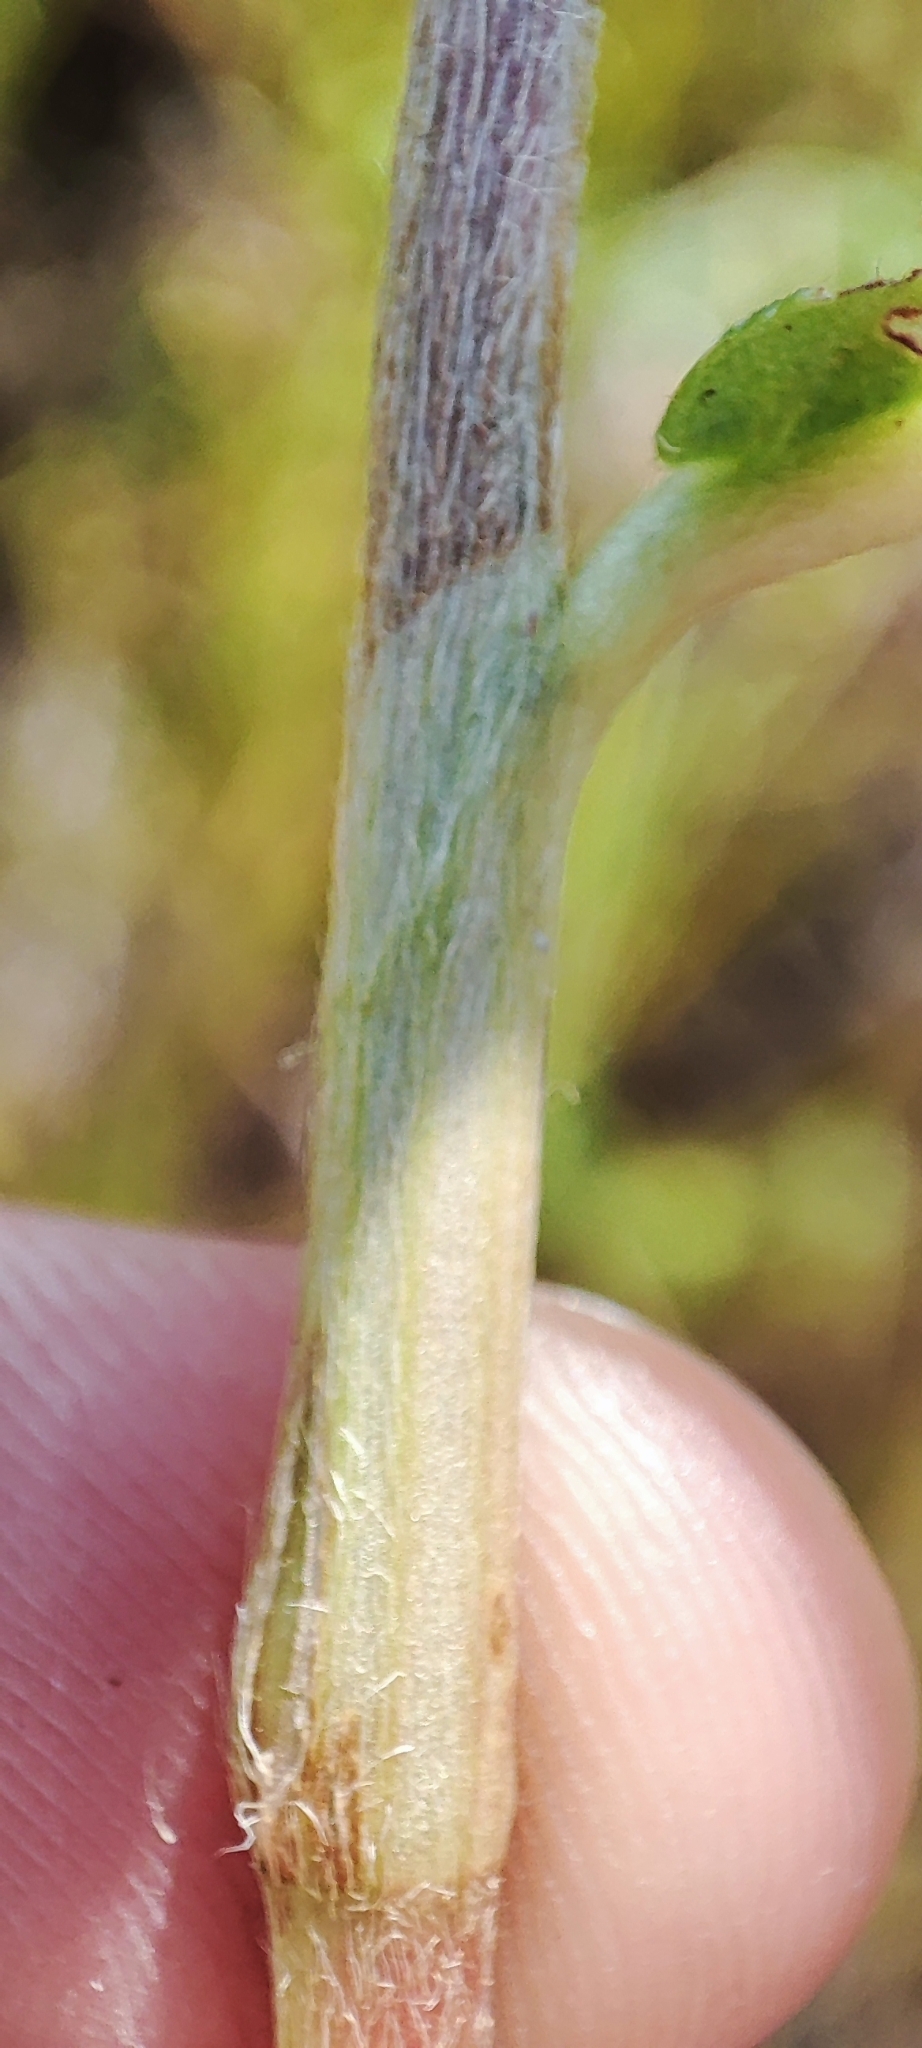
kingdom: Plantae
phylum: Tracheophyta
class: Magnoliopsida
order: Caryophyllales
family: Polygonaceae
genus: Persicaria
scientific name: Persicaria amphibia
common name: Amphibious bistort
